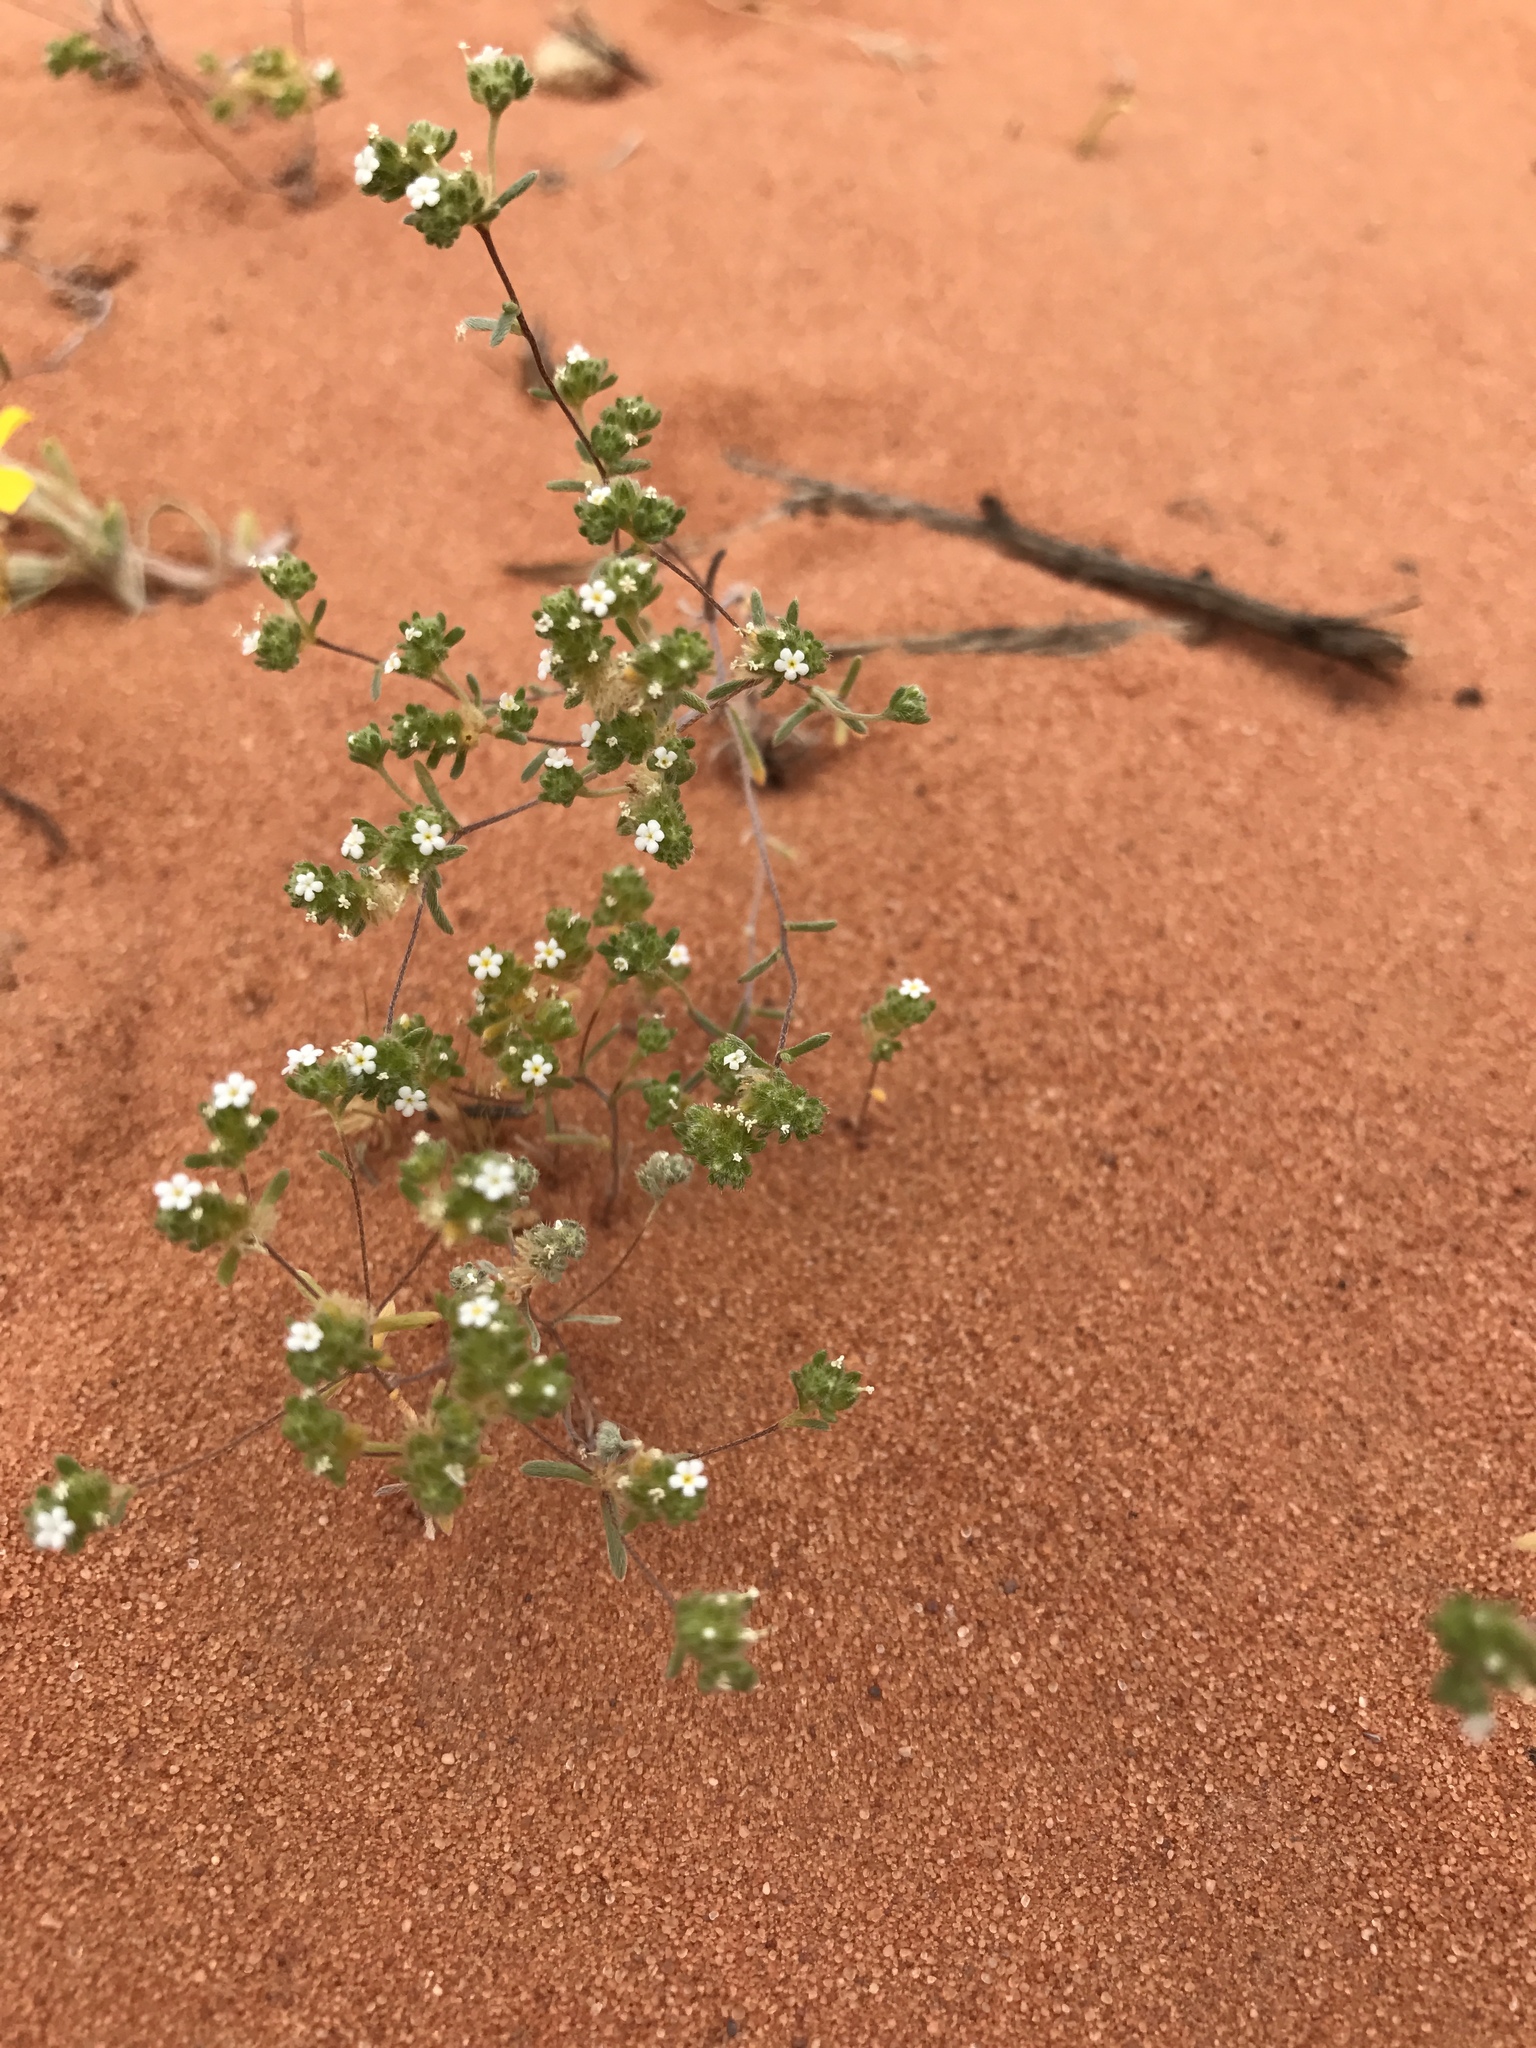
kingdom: Plantae
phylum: Tracheophyta
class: Magnoliopsida
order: Boraginales
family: Boraginaceae
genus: Eremocarya
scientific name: Eremocarya micrantha
